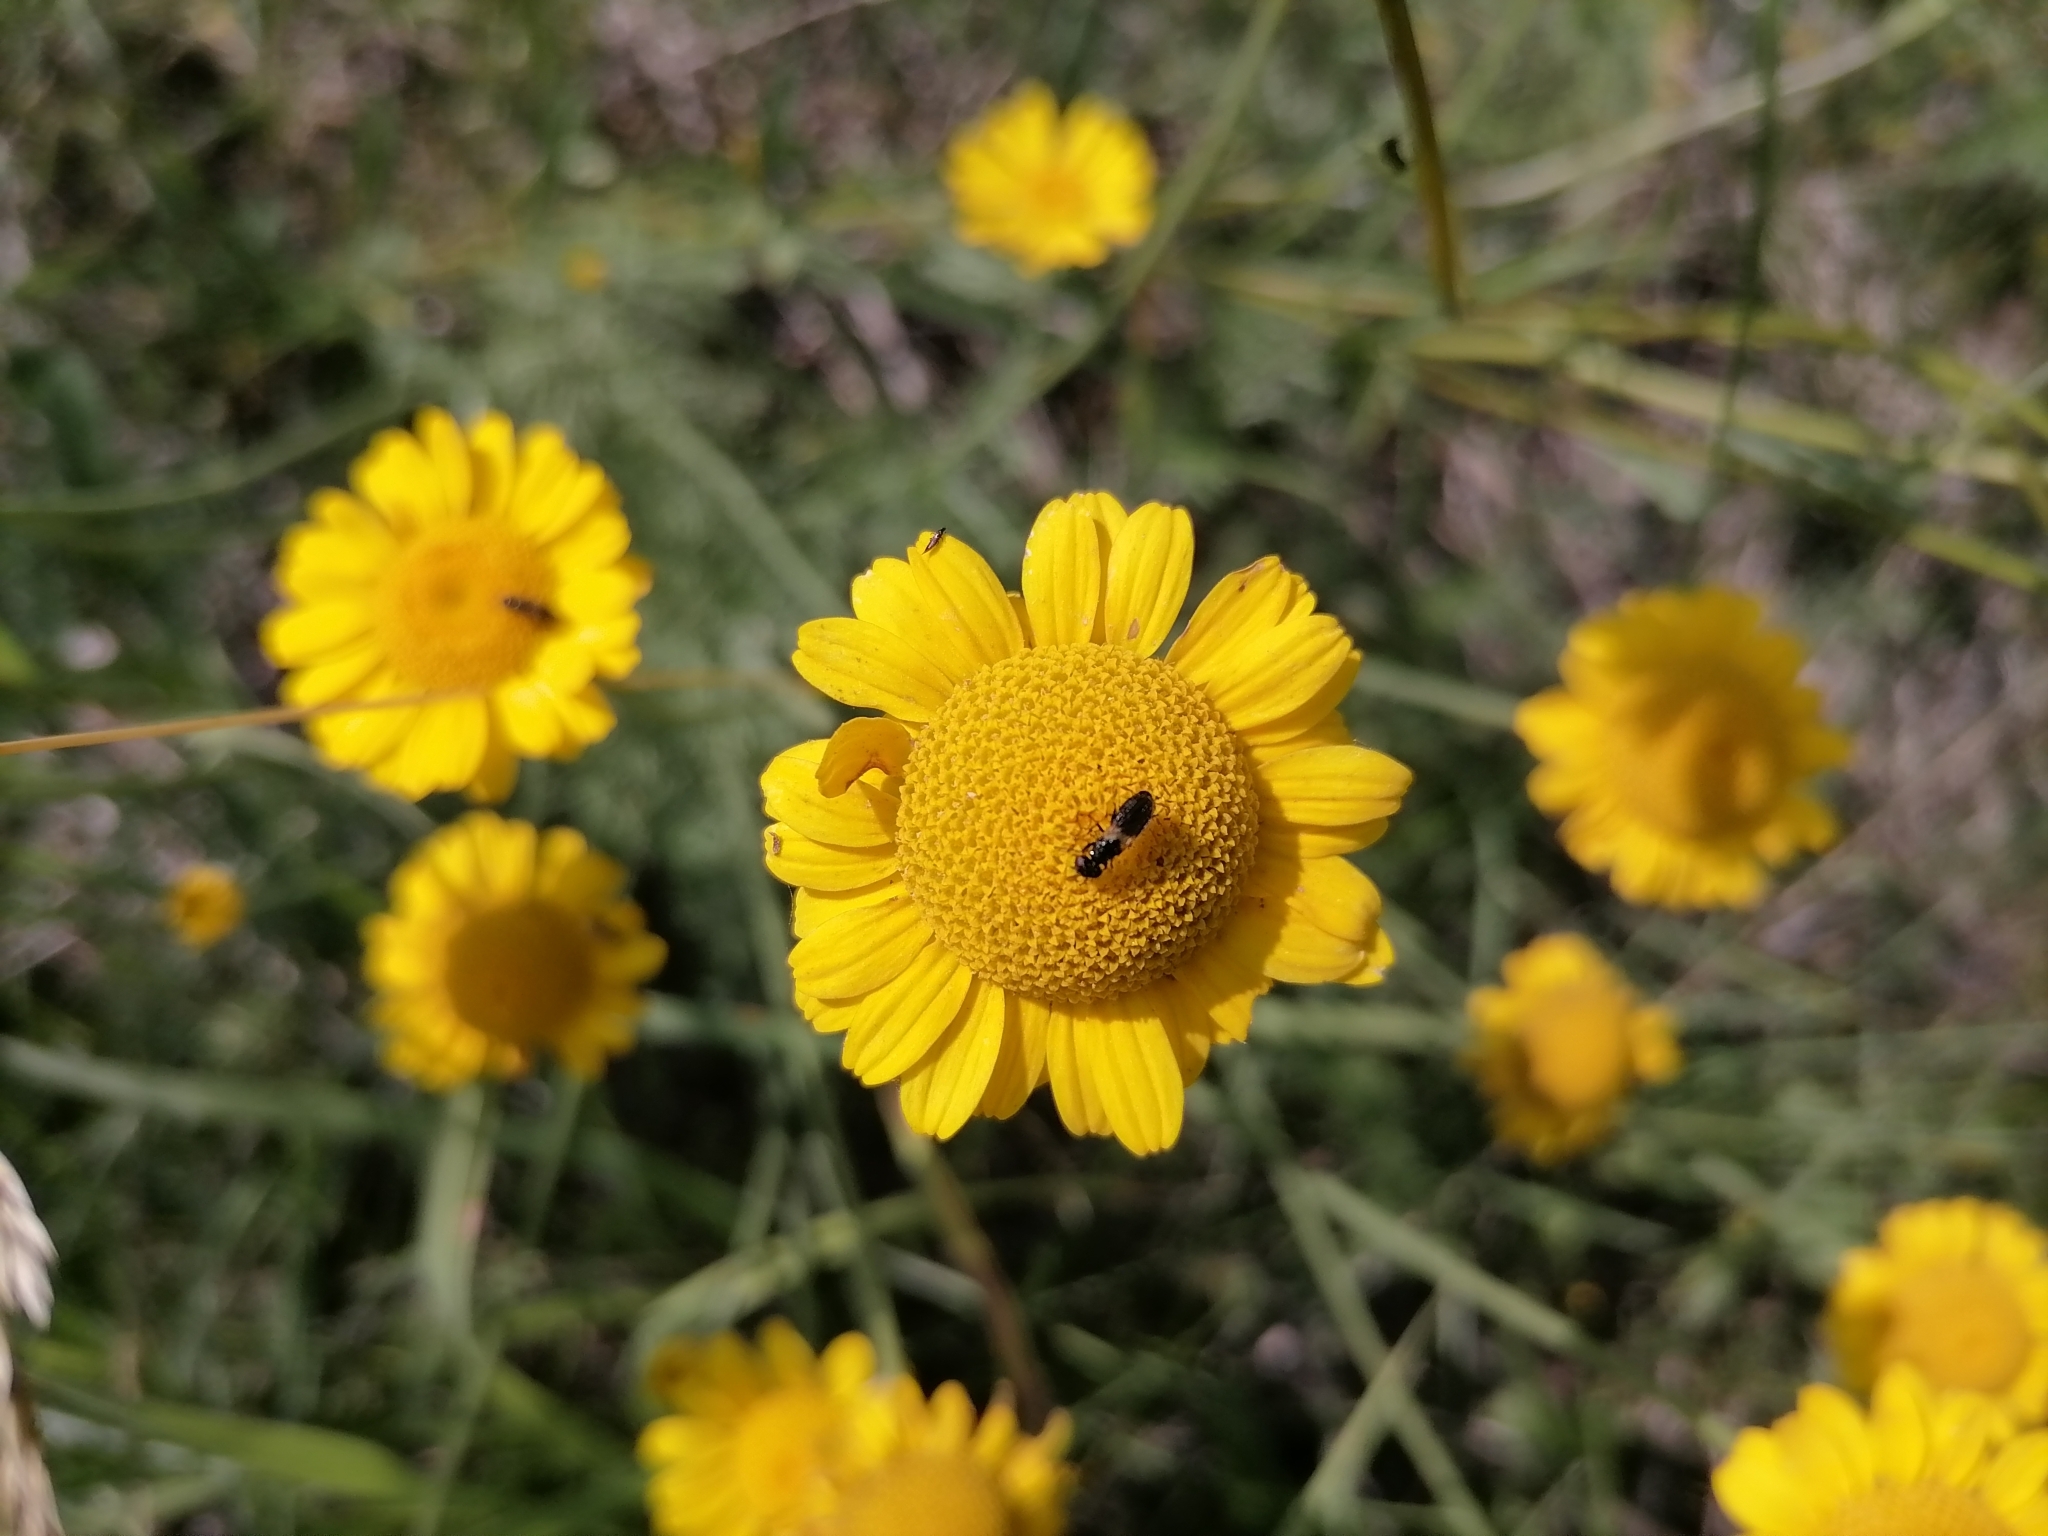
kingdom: Plantae
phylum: Tracheophyta
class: Magnoliopsida
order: Asterales
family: Asteraceae
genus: Cota
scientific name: Cota tinctoria
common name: Golden chamomile
